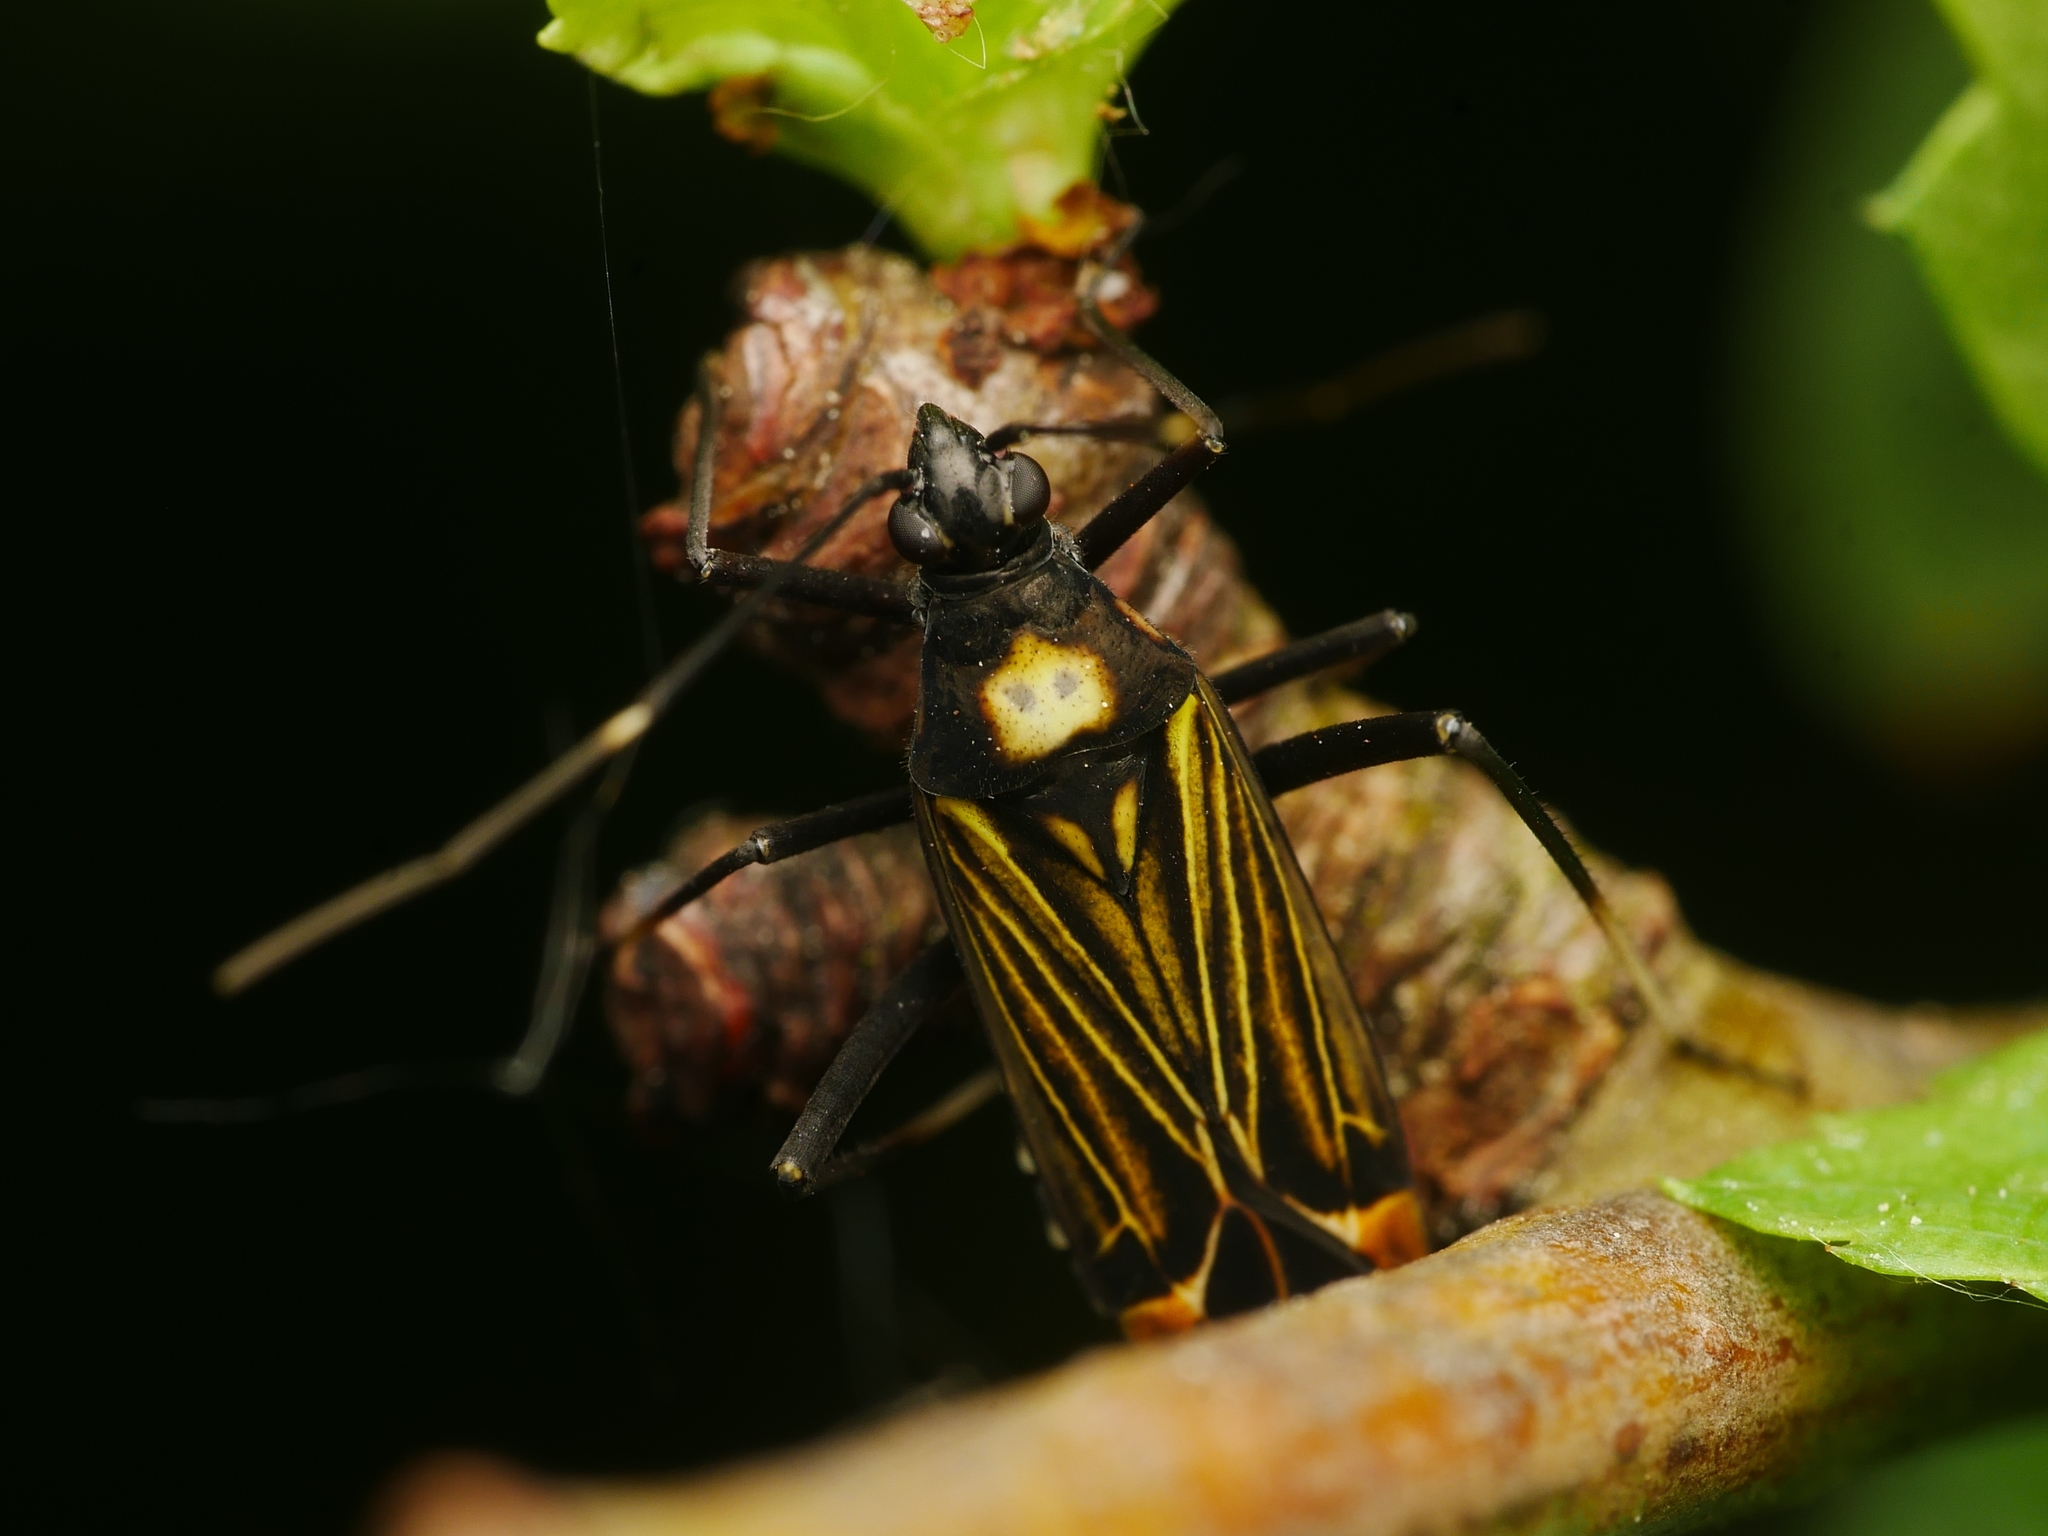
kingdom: Animalia
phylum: Arthropoda
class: Insecta
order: Hemiptera
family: Miridae
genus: Miris
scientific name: Miris striatus
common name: Fine streaked bugkin
